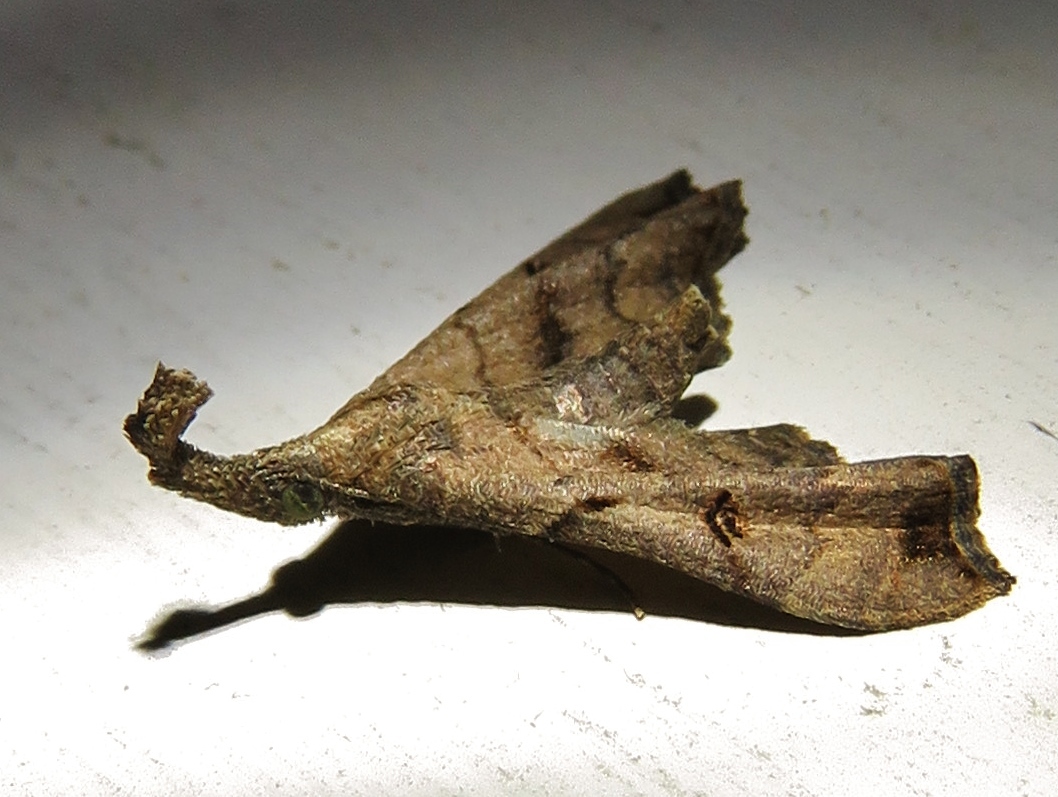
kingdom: Animalia
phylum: Arthropoda
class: Insecta
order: Lepidoptera
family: Erebidae
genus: Palthis
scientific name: Palthis asopialis
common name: Faint-spotted palthis moth
